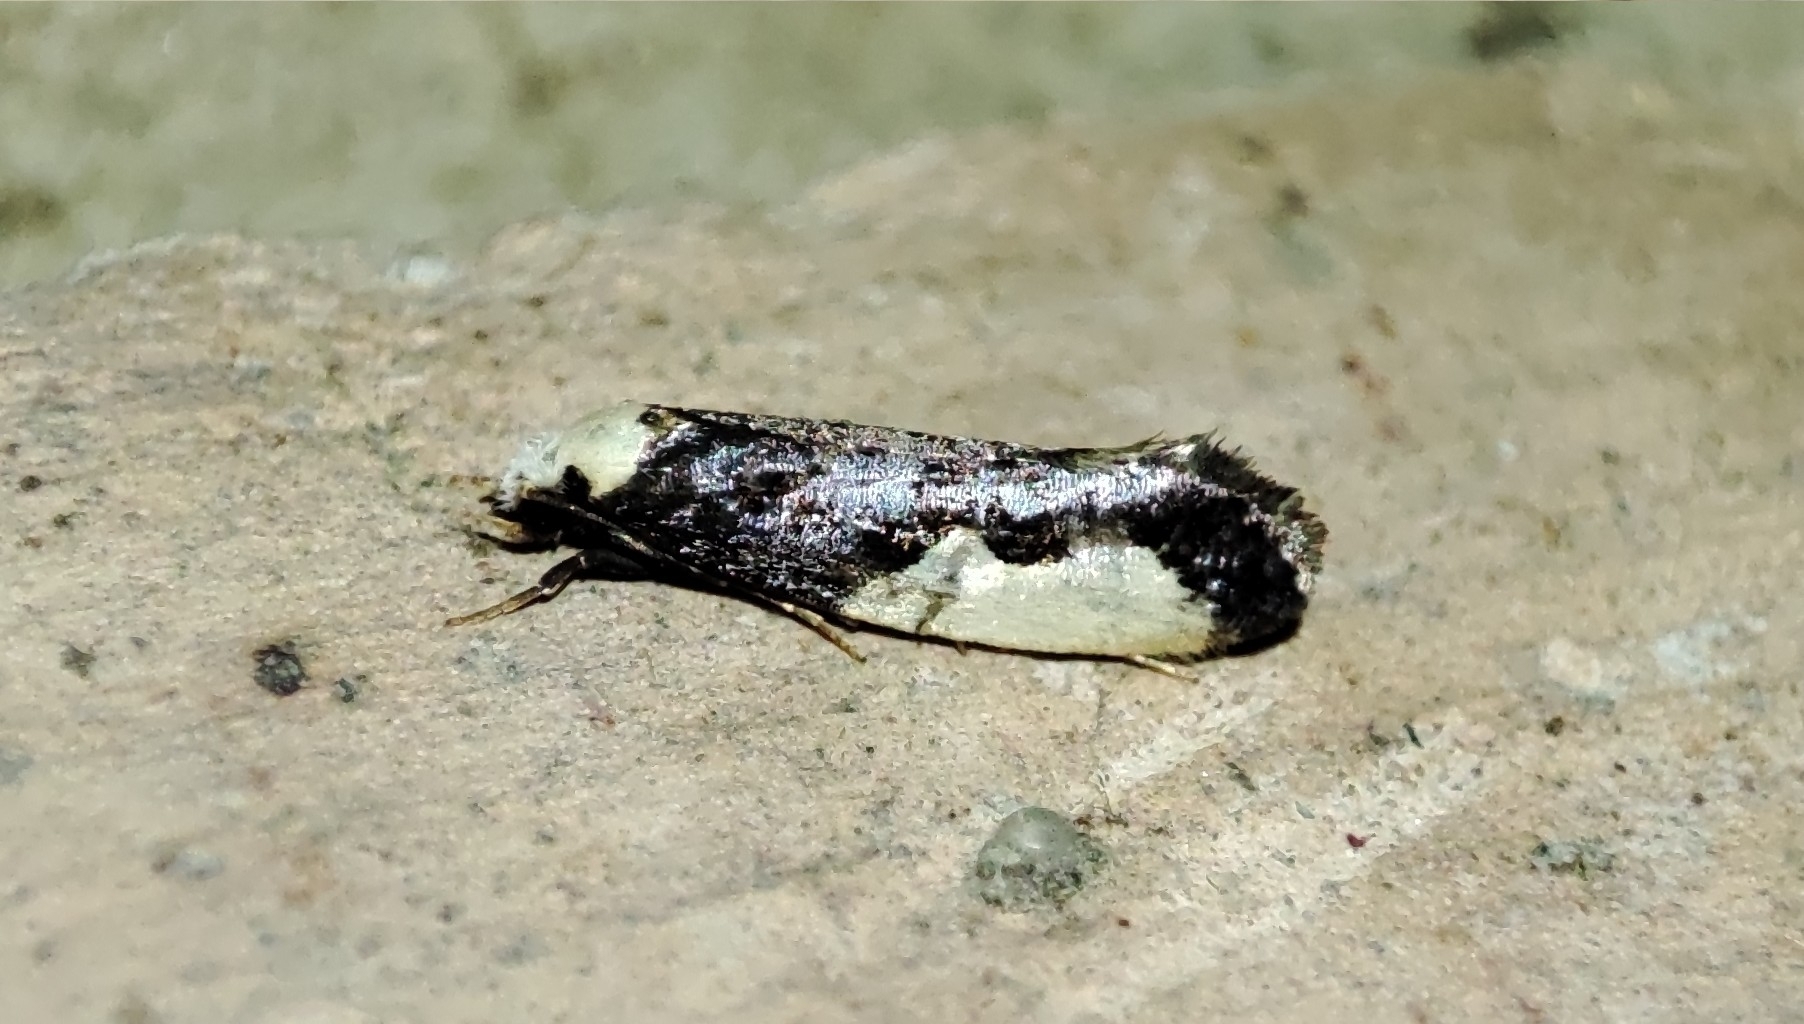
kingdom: Animalia
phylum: Arthropoda
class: Insecta
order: Lepidoptera
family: Tineidae
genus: Monopis
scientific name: Monopis monachella
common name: Moth
